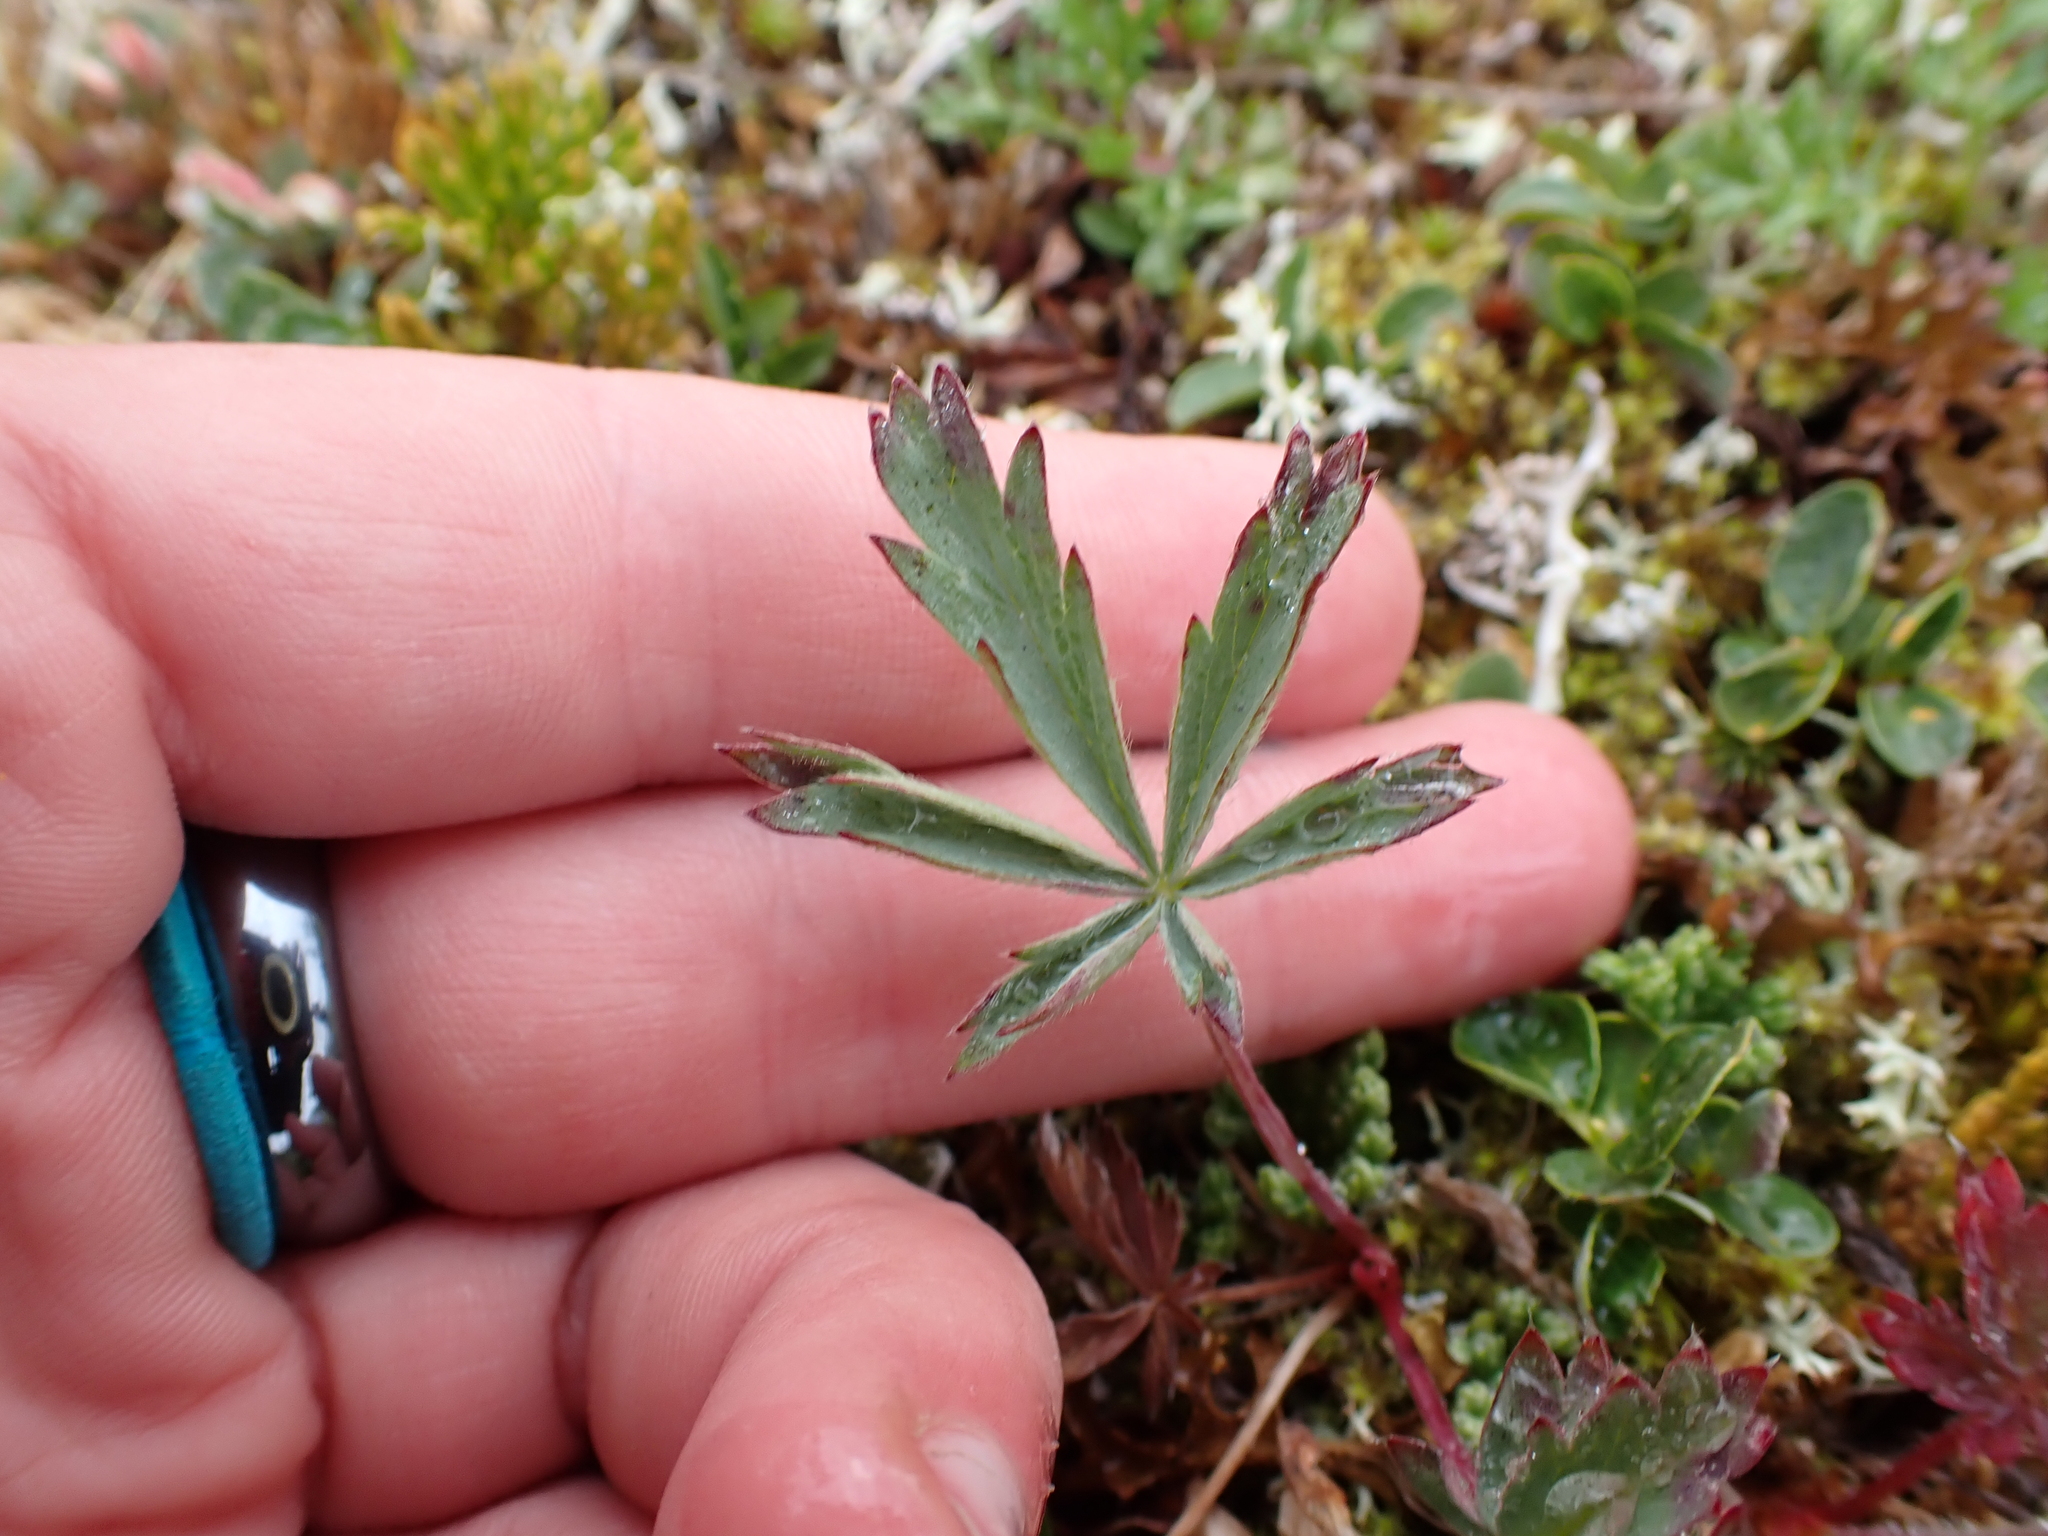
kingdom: Plantae
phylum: Tracheophyta
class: Magnoliopsida
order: Rosales
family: Rosaceae
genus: Potentilla
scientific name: Potentilla glaucophylla
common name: Blue-leaved cinquefoil
